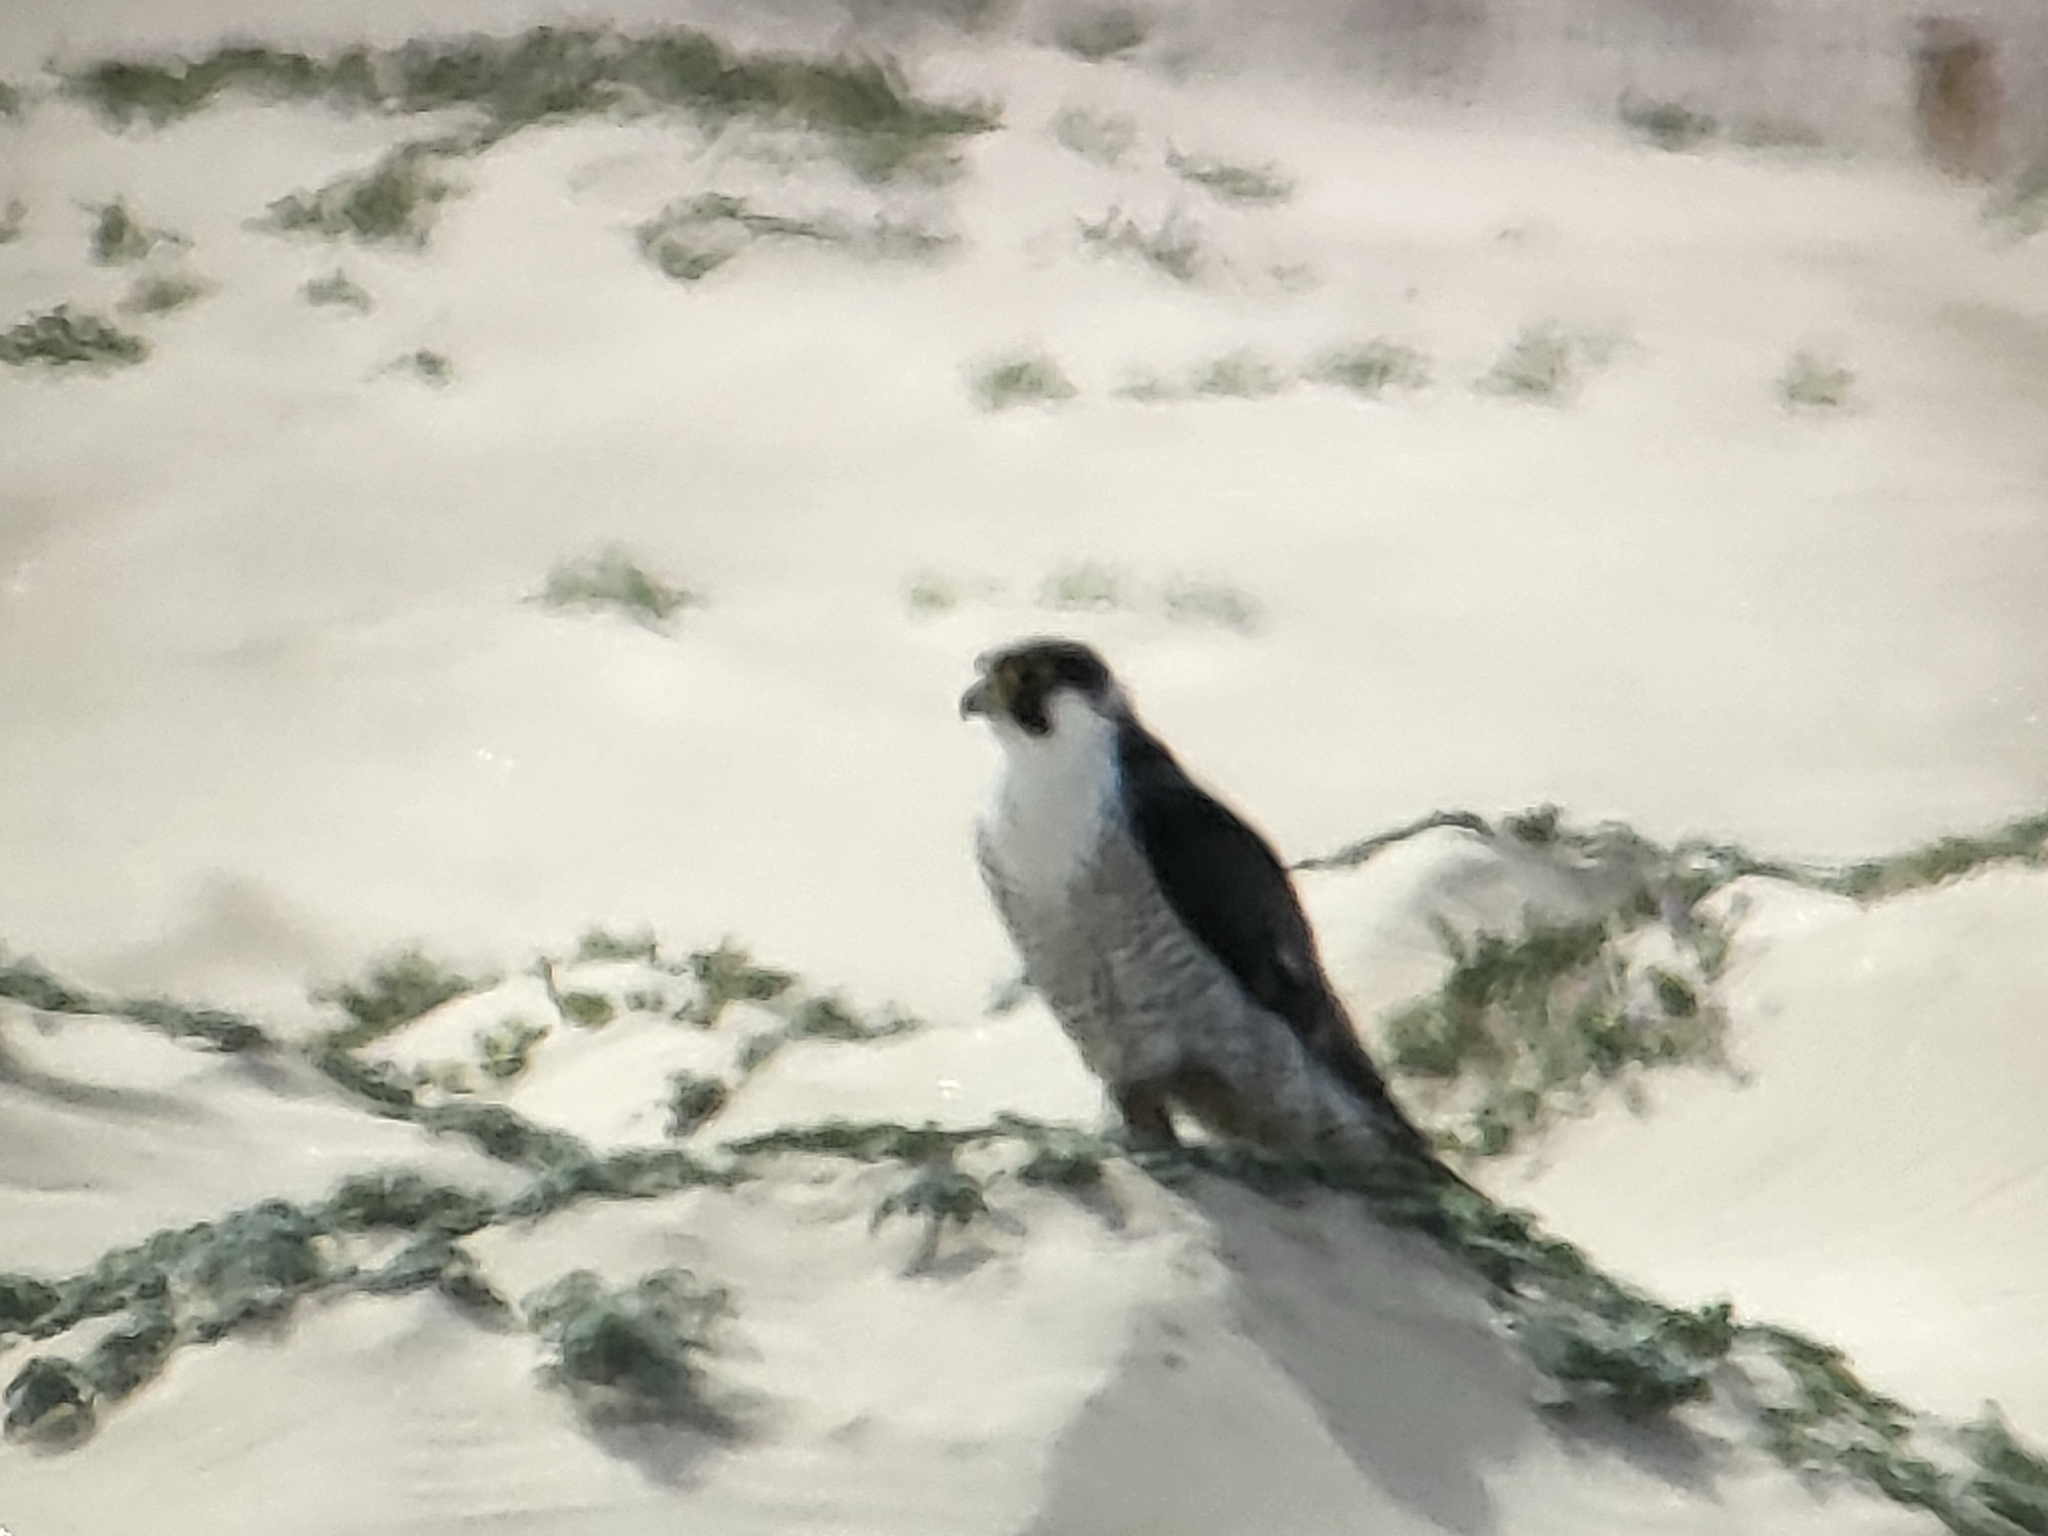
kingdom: Animalia
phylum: Chordata
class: Aves
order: Falconiformes
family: Falconidae
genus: Falco
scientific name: Falco peregrinus
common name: Peregrine falcon
